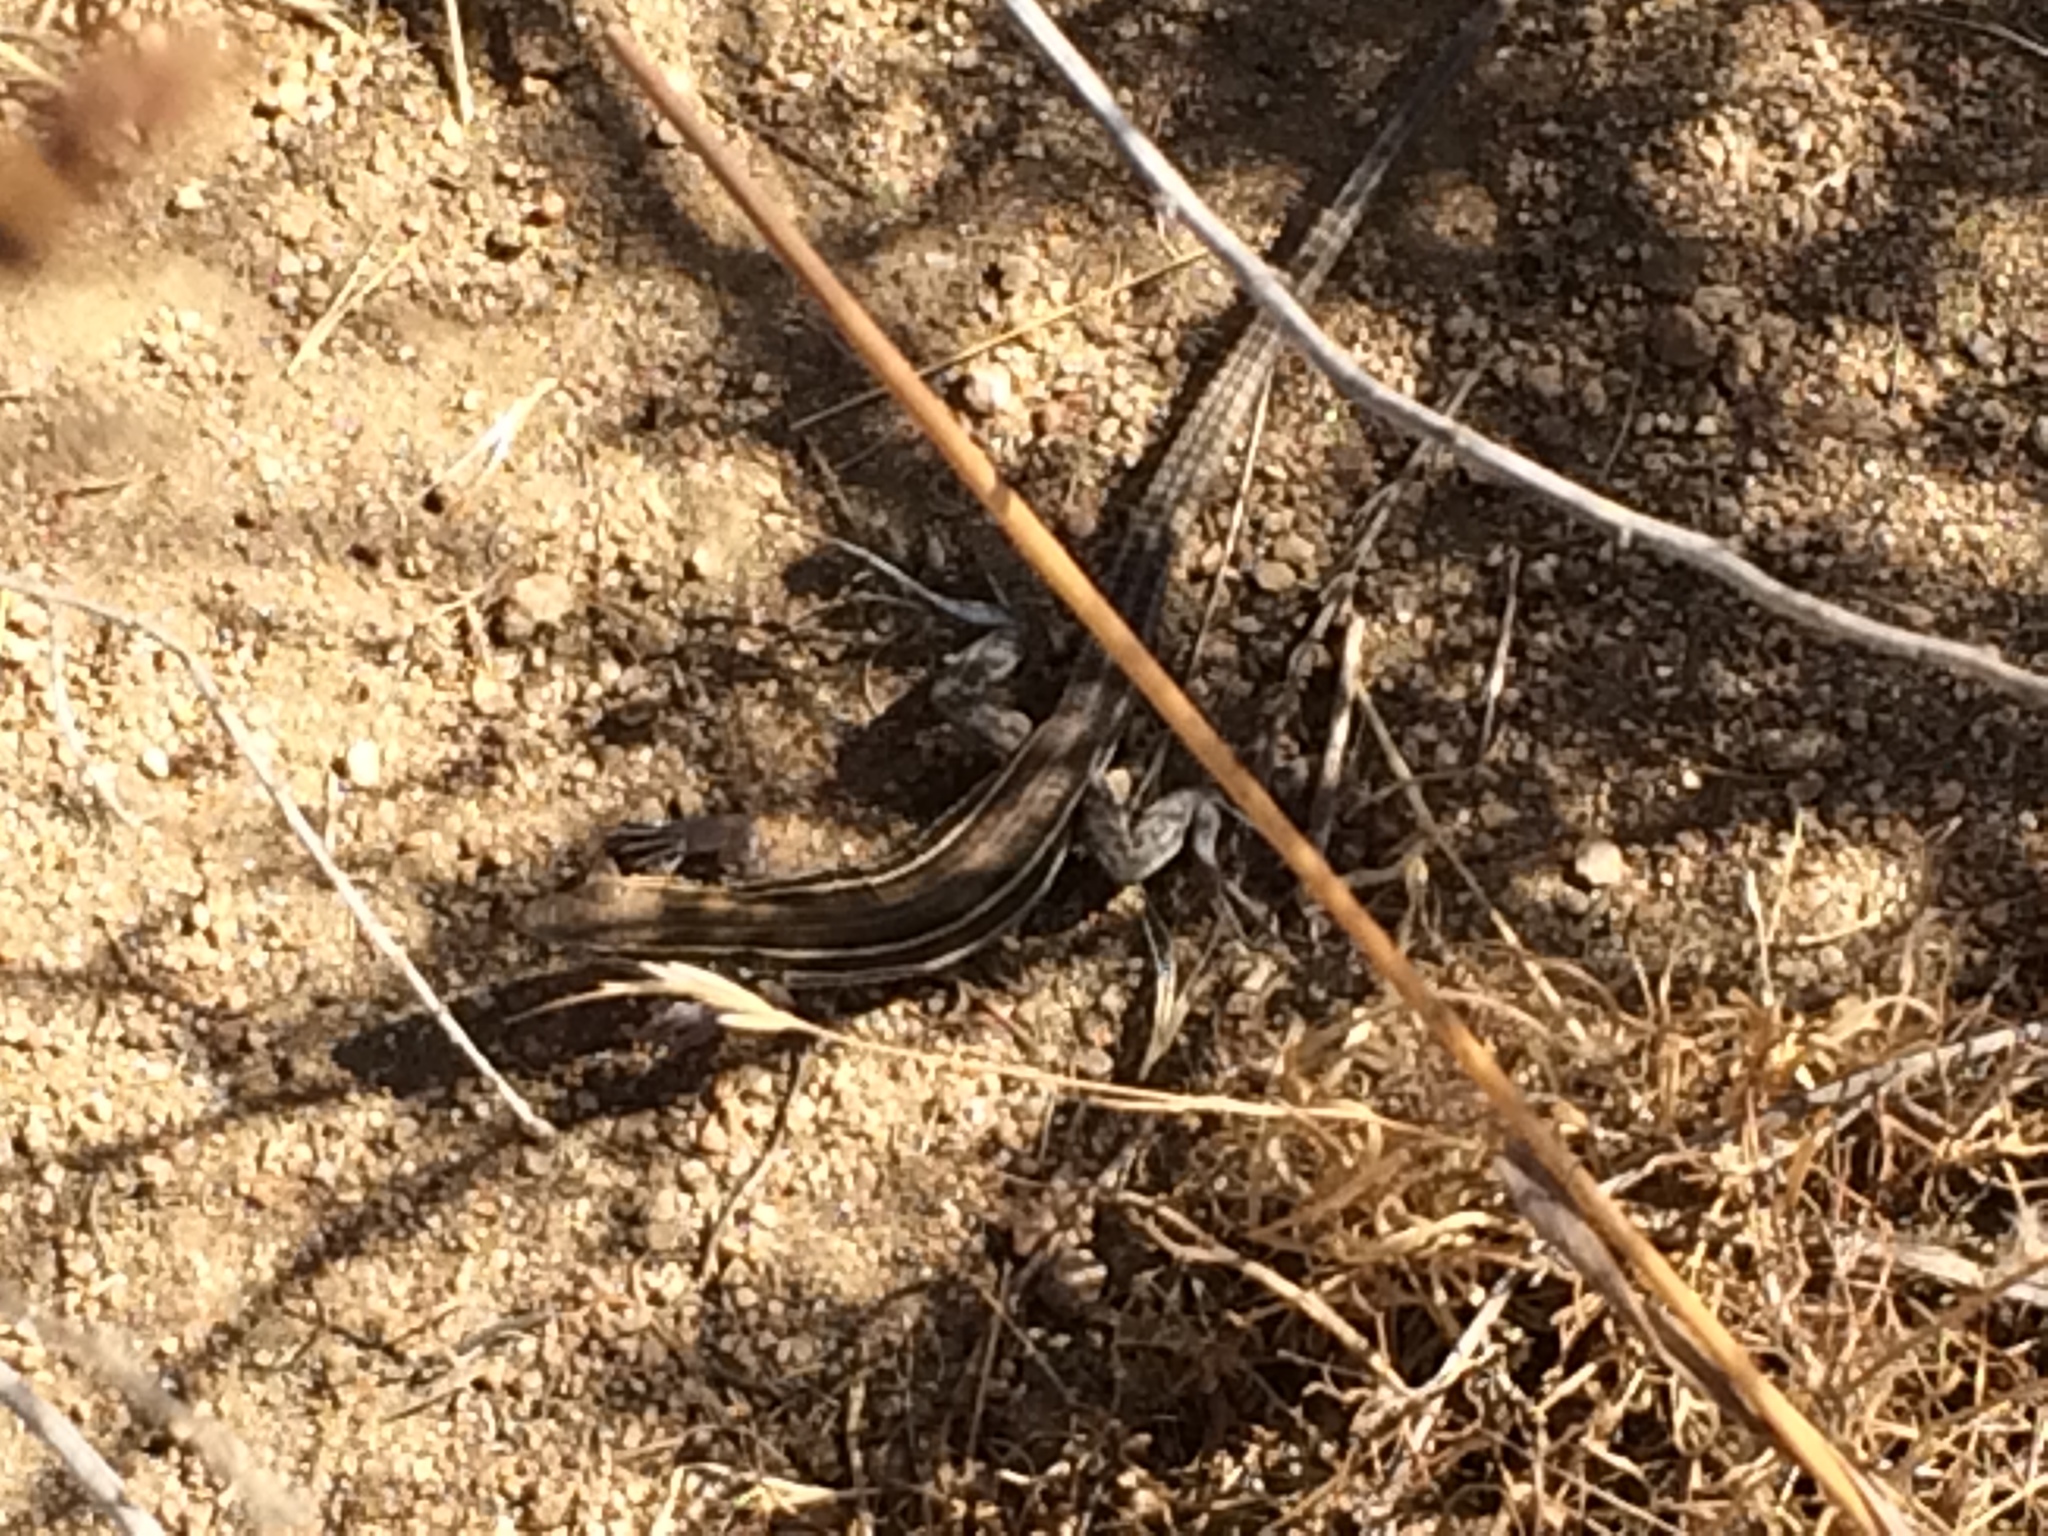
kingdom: Animalia
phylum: Chordata
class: Squamata
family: Teiidae
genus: Aspidoscelis
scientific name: Aspidoscelis hyperythrus
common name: Orange-throated race-runner
